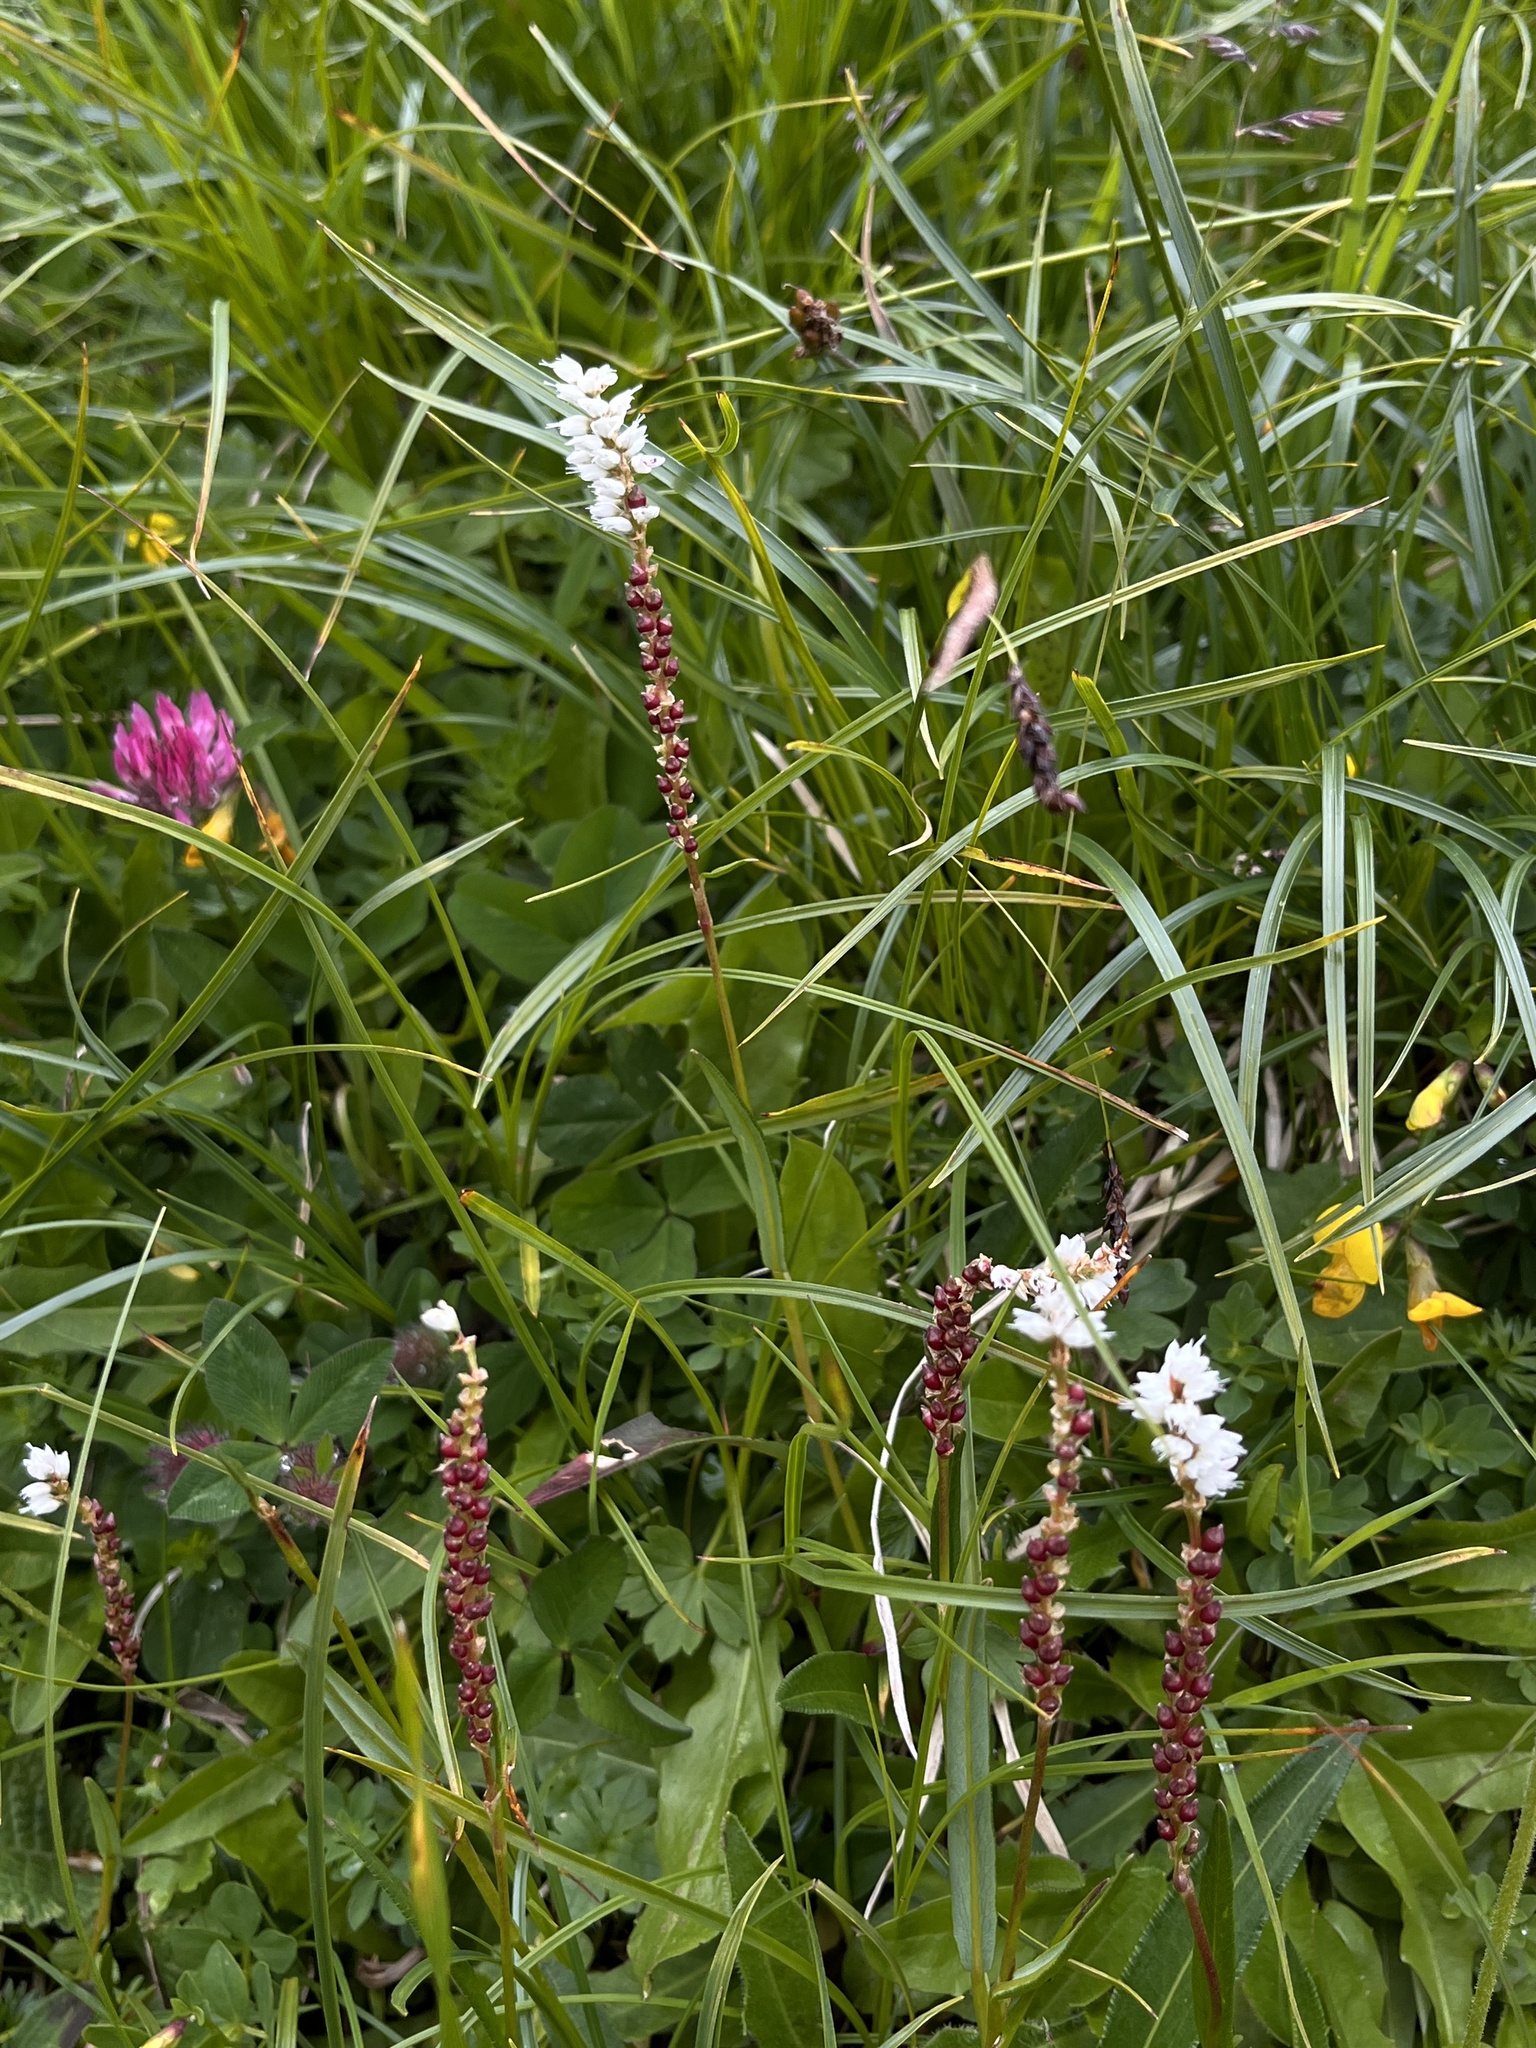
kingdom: Plantae
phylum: Tracheophyta
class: Magnoliopsida
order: Caryophyllales
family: Polygonaceae
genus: Bistorta
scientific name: Bistorta vivipara
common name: Alpine bistort
